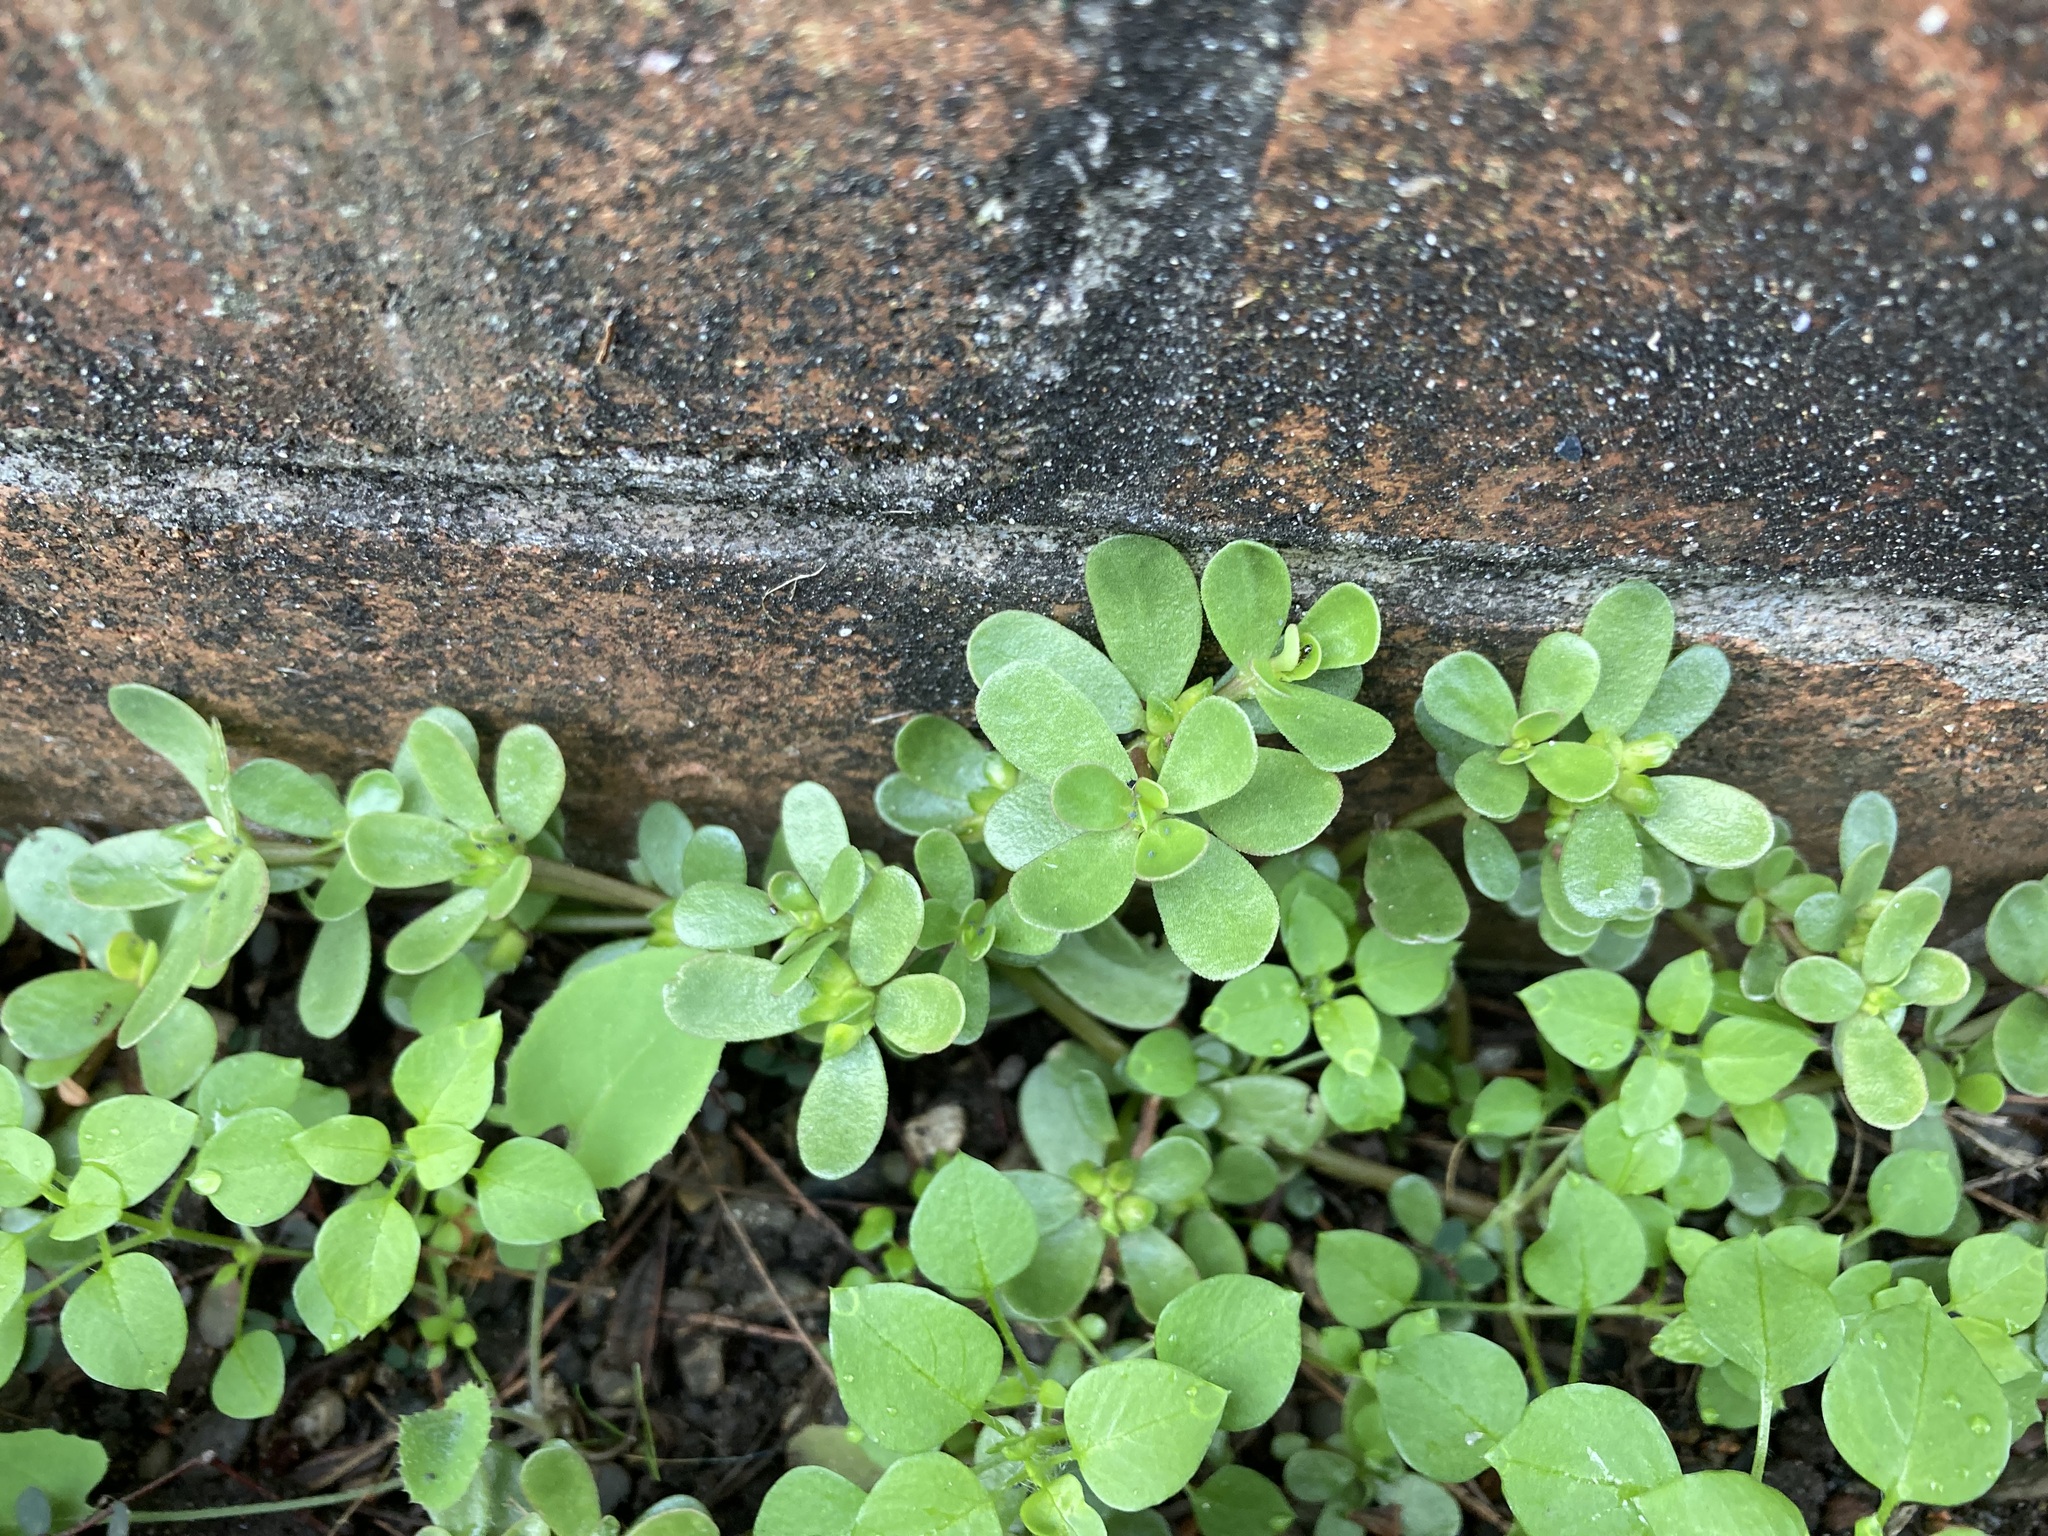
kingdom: Plantae
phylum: Tracheophyta
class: Magnoliopsida
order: Caryophyllales
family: Portulacaceae
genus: Portulaca
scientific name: Portulaca oleracea
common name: Common purslane
